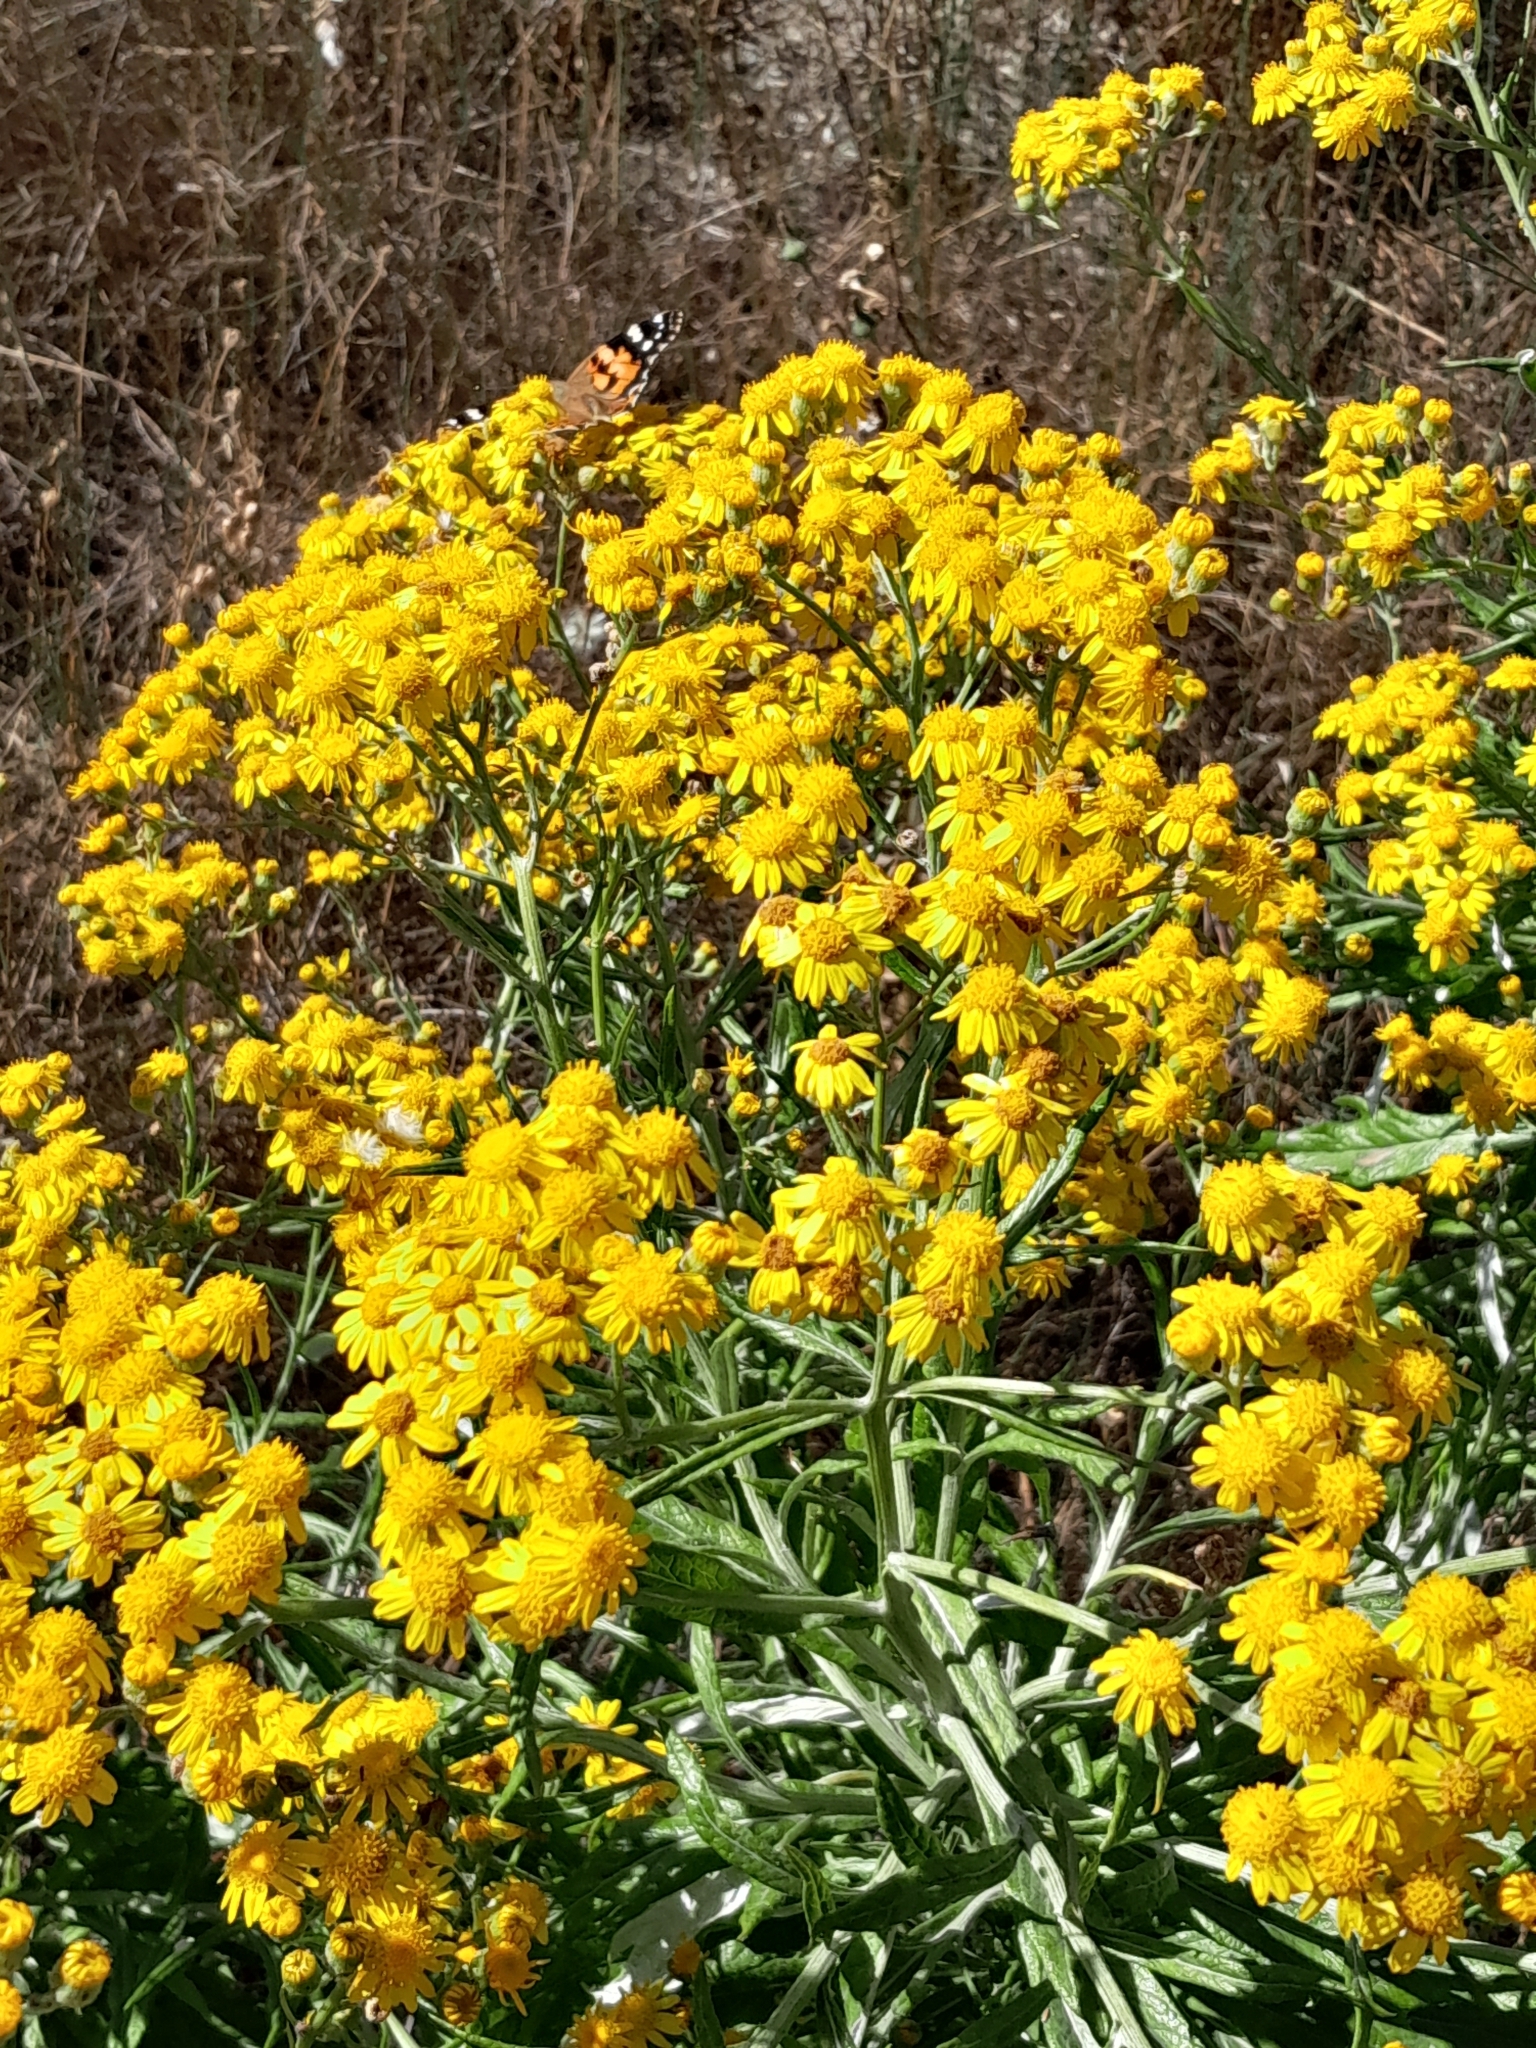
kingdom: Animalia
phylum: Arthropoda
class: Insecta
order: Lepidoptera
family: Nymphalidae
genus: Vanessa
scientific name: Vanessa cardui
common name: Painted lady
